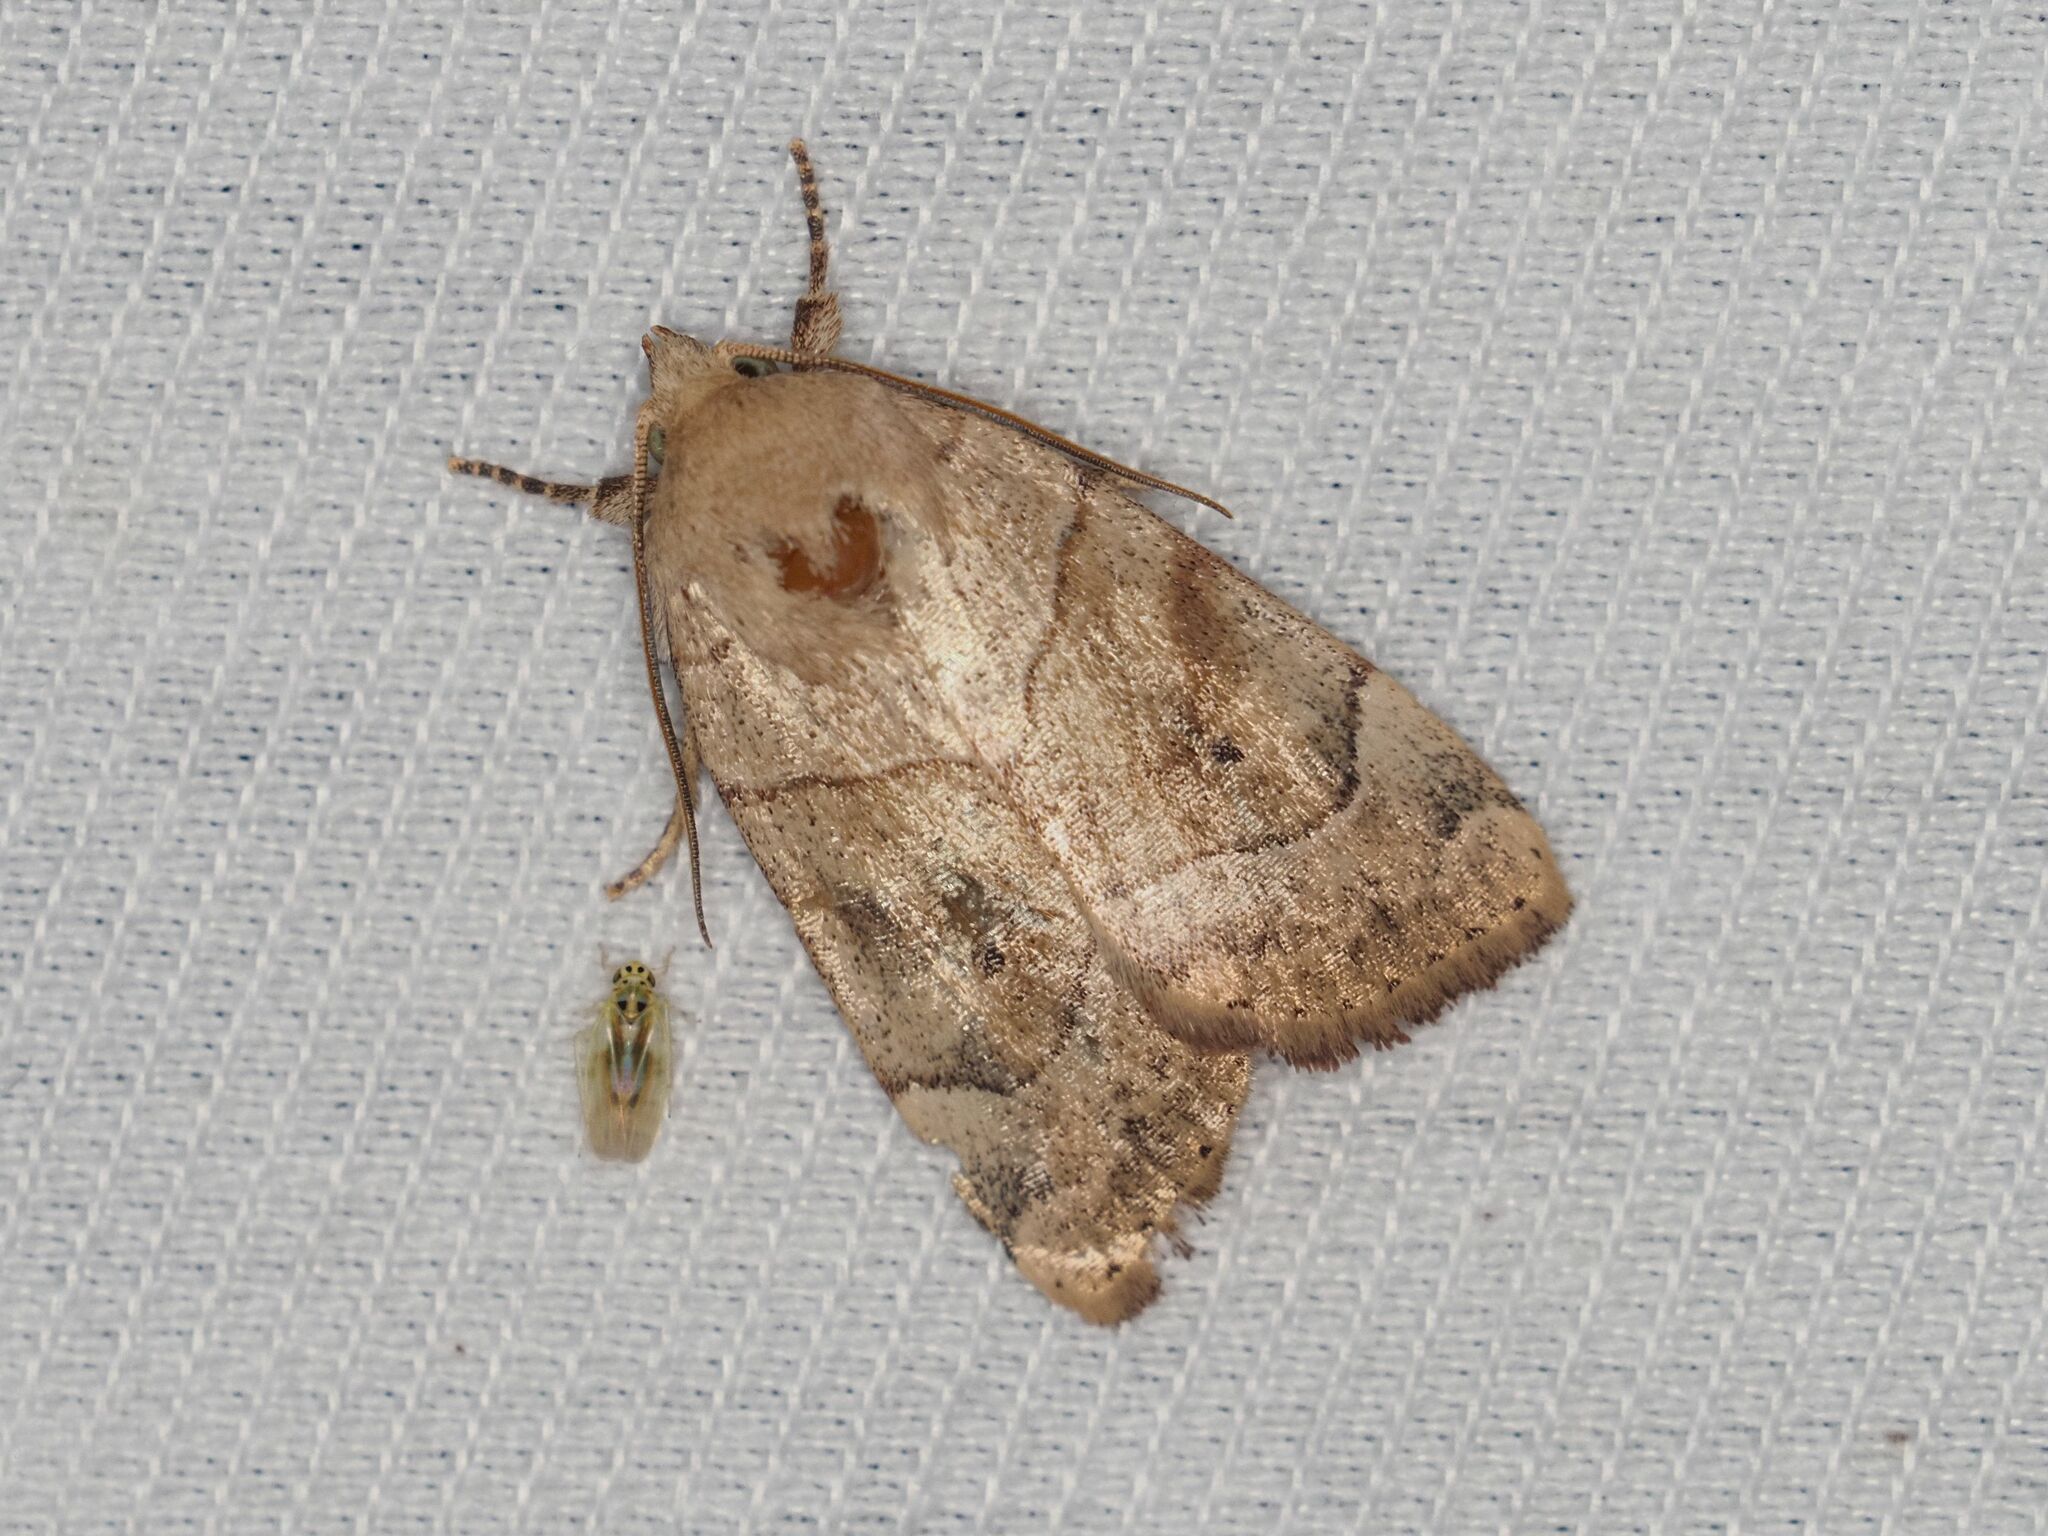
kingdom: Animalia
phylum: Arthropoda
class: Insecta
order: Lepidoptera
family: Noctuidae
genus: Cosmia
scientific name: Cosmia trapezina
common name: Dun-bar
